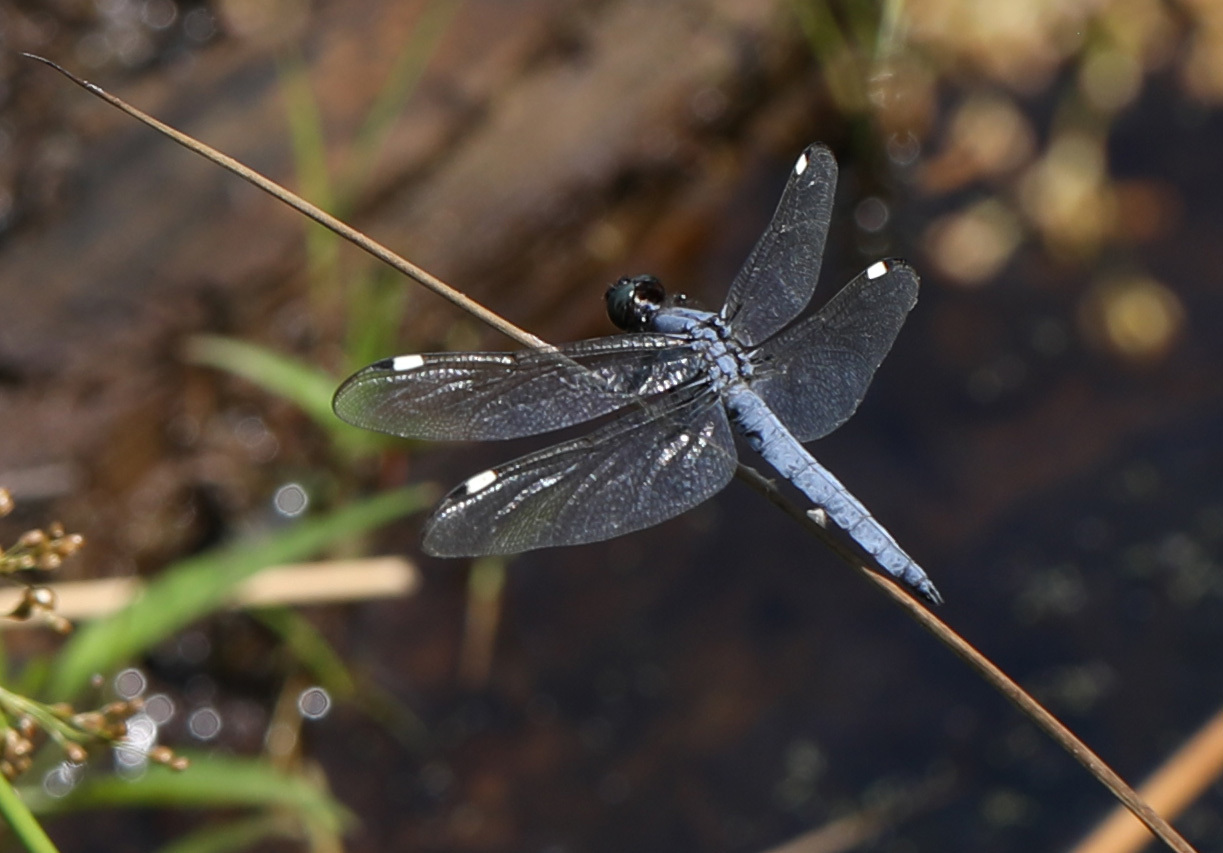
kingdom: Animalia
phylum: Arthropoda
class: Insecta
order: Odonata
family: Libellulidae
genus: Libellula
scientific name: Libellula cyanea
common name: Spangled skimmer
